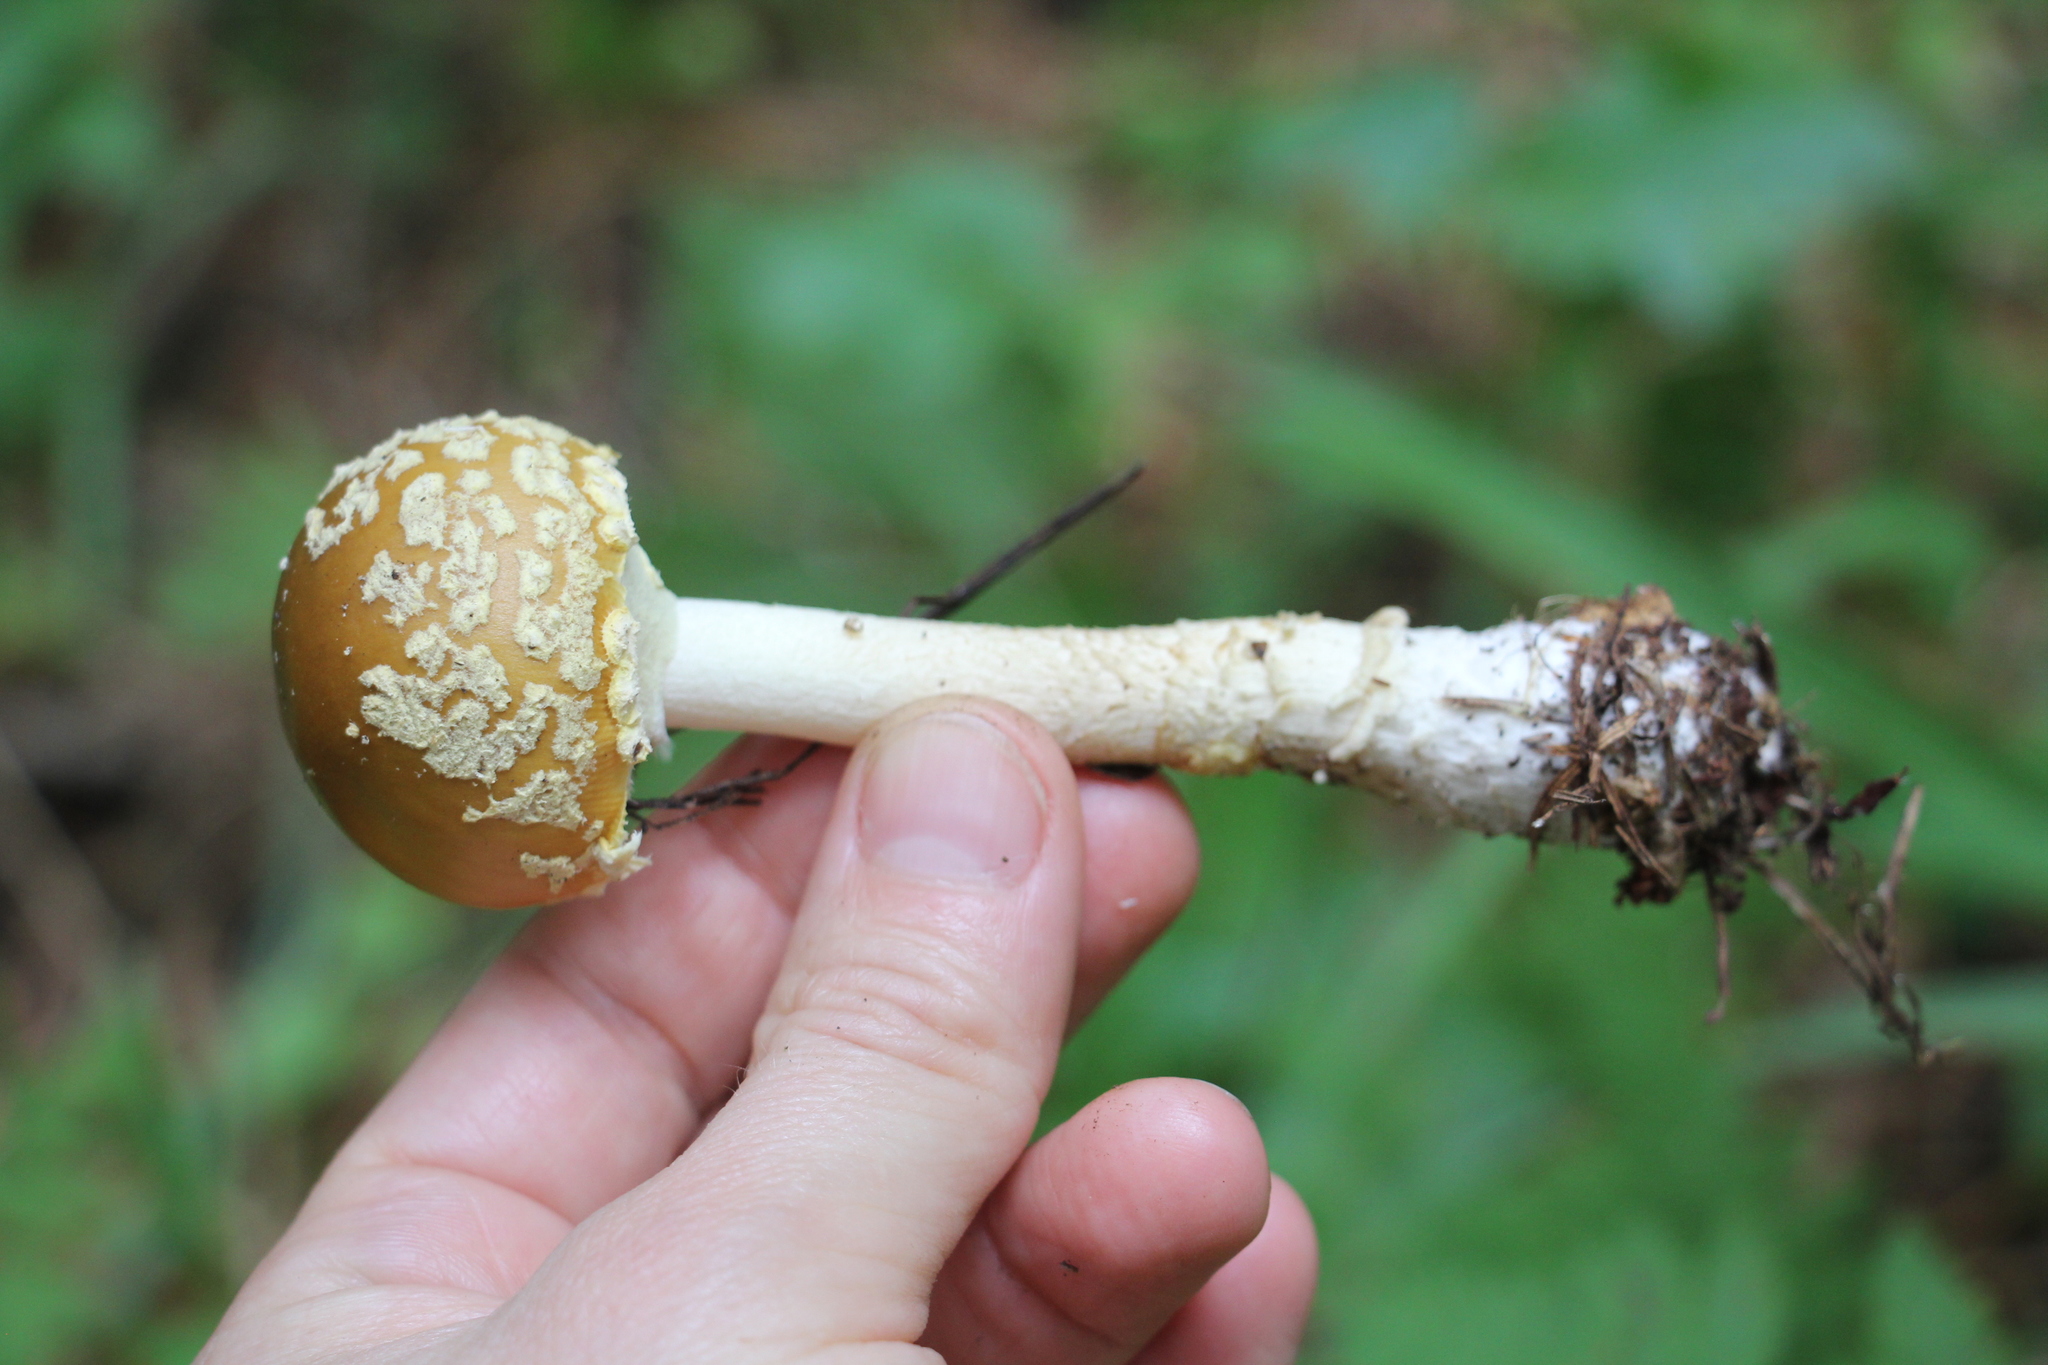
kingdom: Fungi
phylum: Basidiomycota
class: Agaricomycetes
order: Agaricales
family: Amanitaceae
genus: Amanita
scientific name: Amanita regalis
